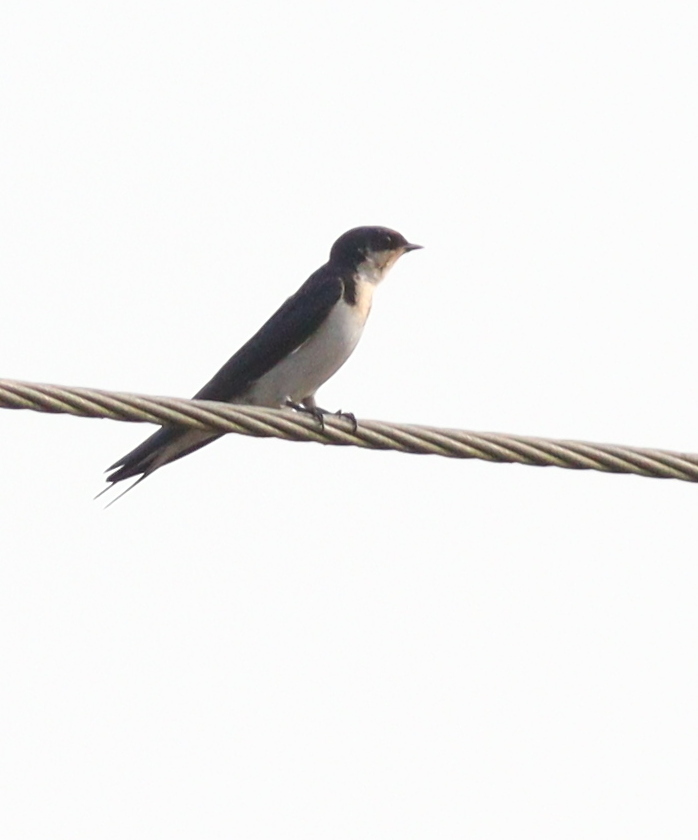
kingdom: Animalia
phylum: Chordata
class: Aves
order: Passeriformes
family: Hirundinidae
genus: Hirundo
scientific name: Hirundo aethiopica
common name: Ethiopian swallow
